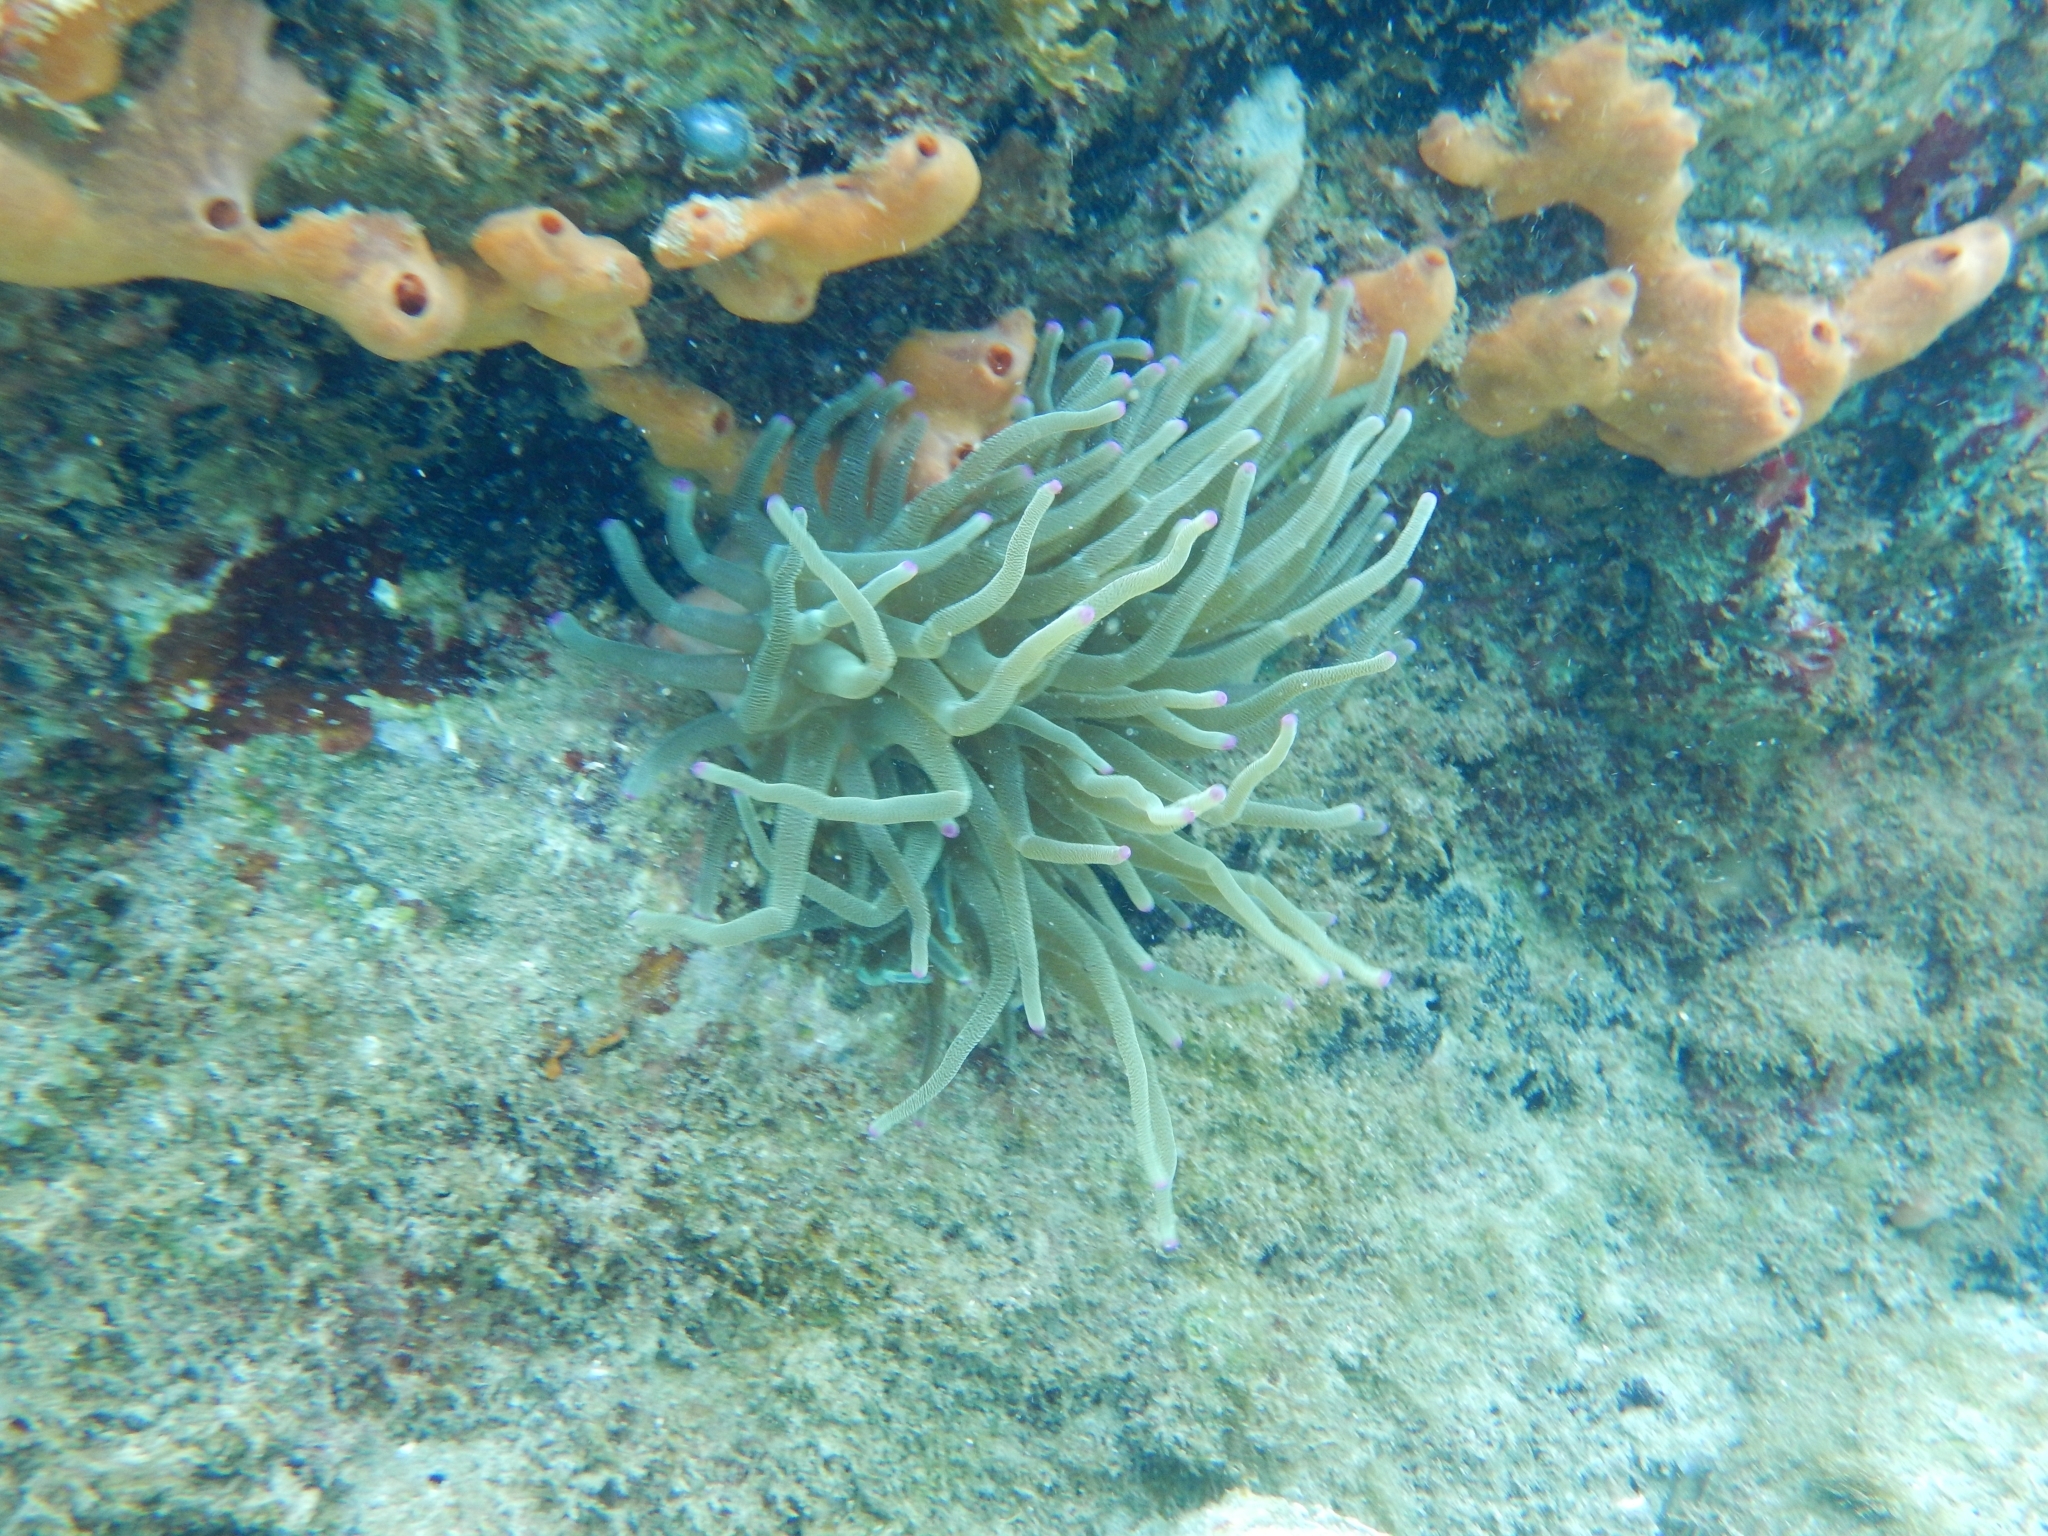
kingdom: Animalia
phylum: Cnidaria
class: Anthozoa
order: Actiniaria
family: Actiniidae
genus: Condylactis
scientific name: Condylactis gigantea
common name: Giant caribbean anemone
